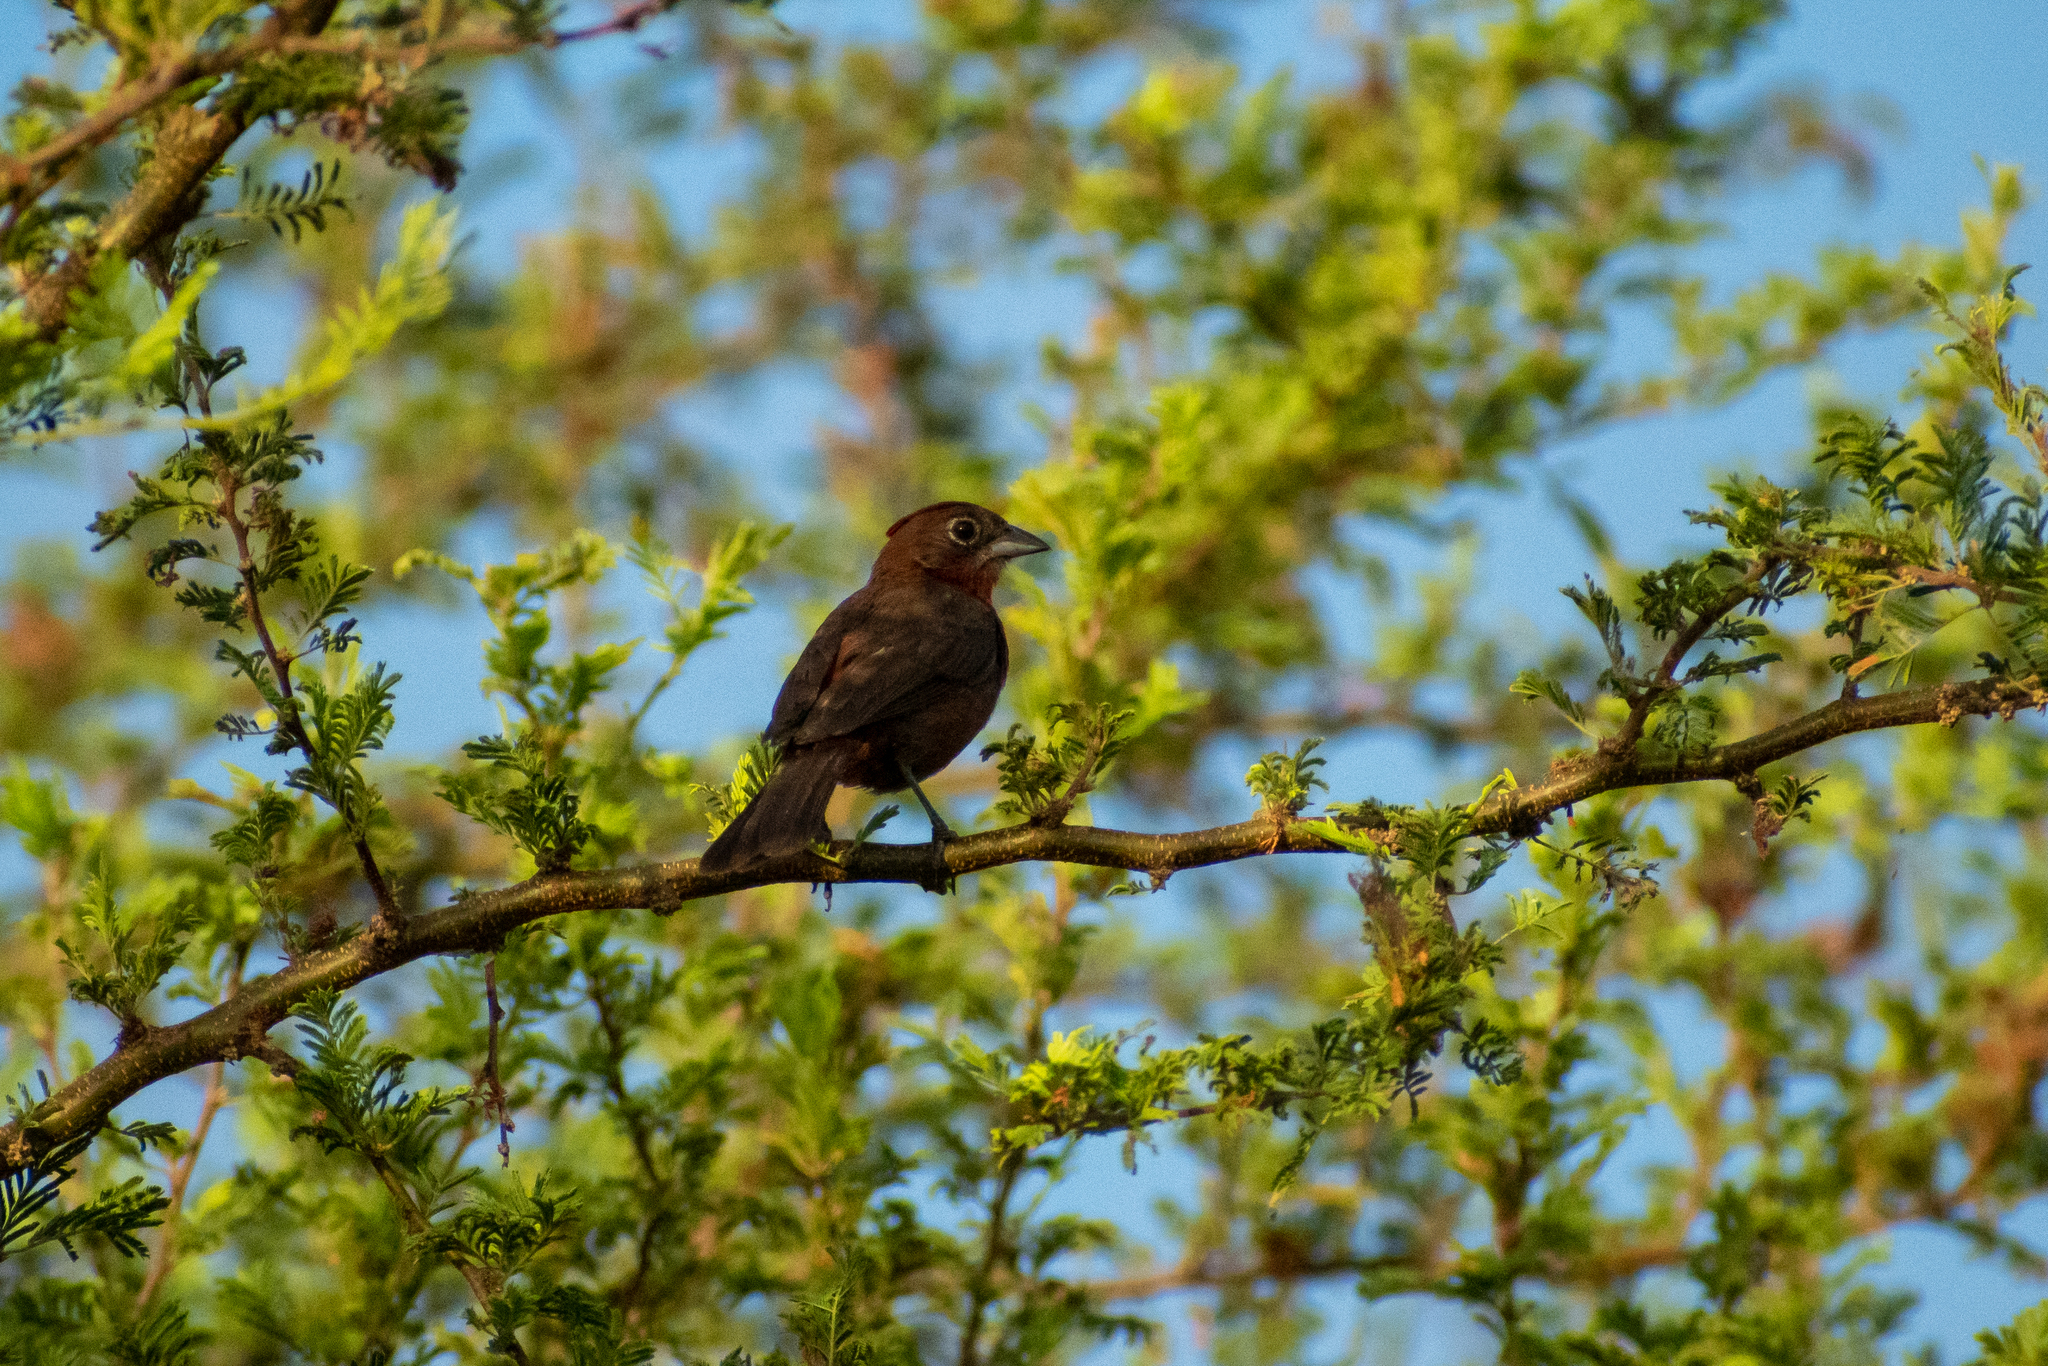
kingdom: Animalia
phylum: Chordata
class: Aves
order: Passeriformes
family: Thraupidae
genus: Coryphospingus
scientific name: Coryphospingus cucullatus
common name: Red pileated finch
